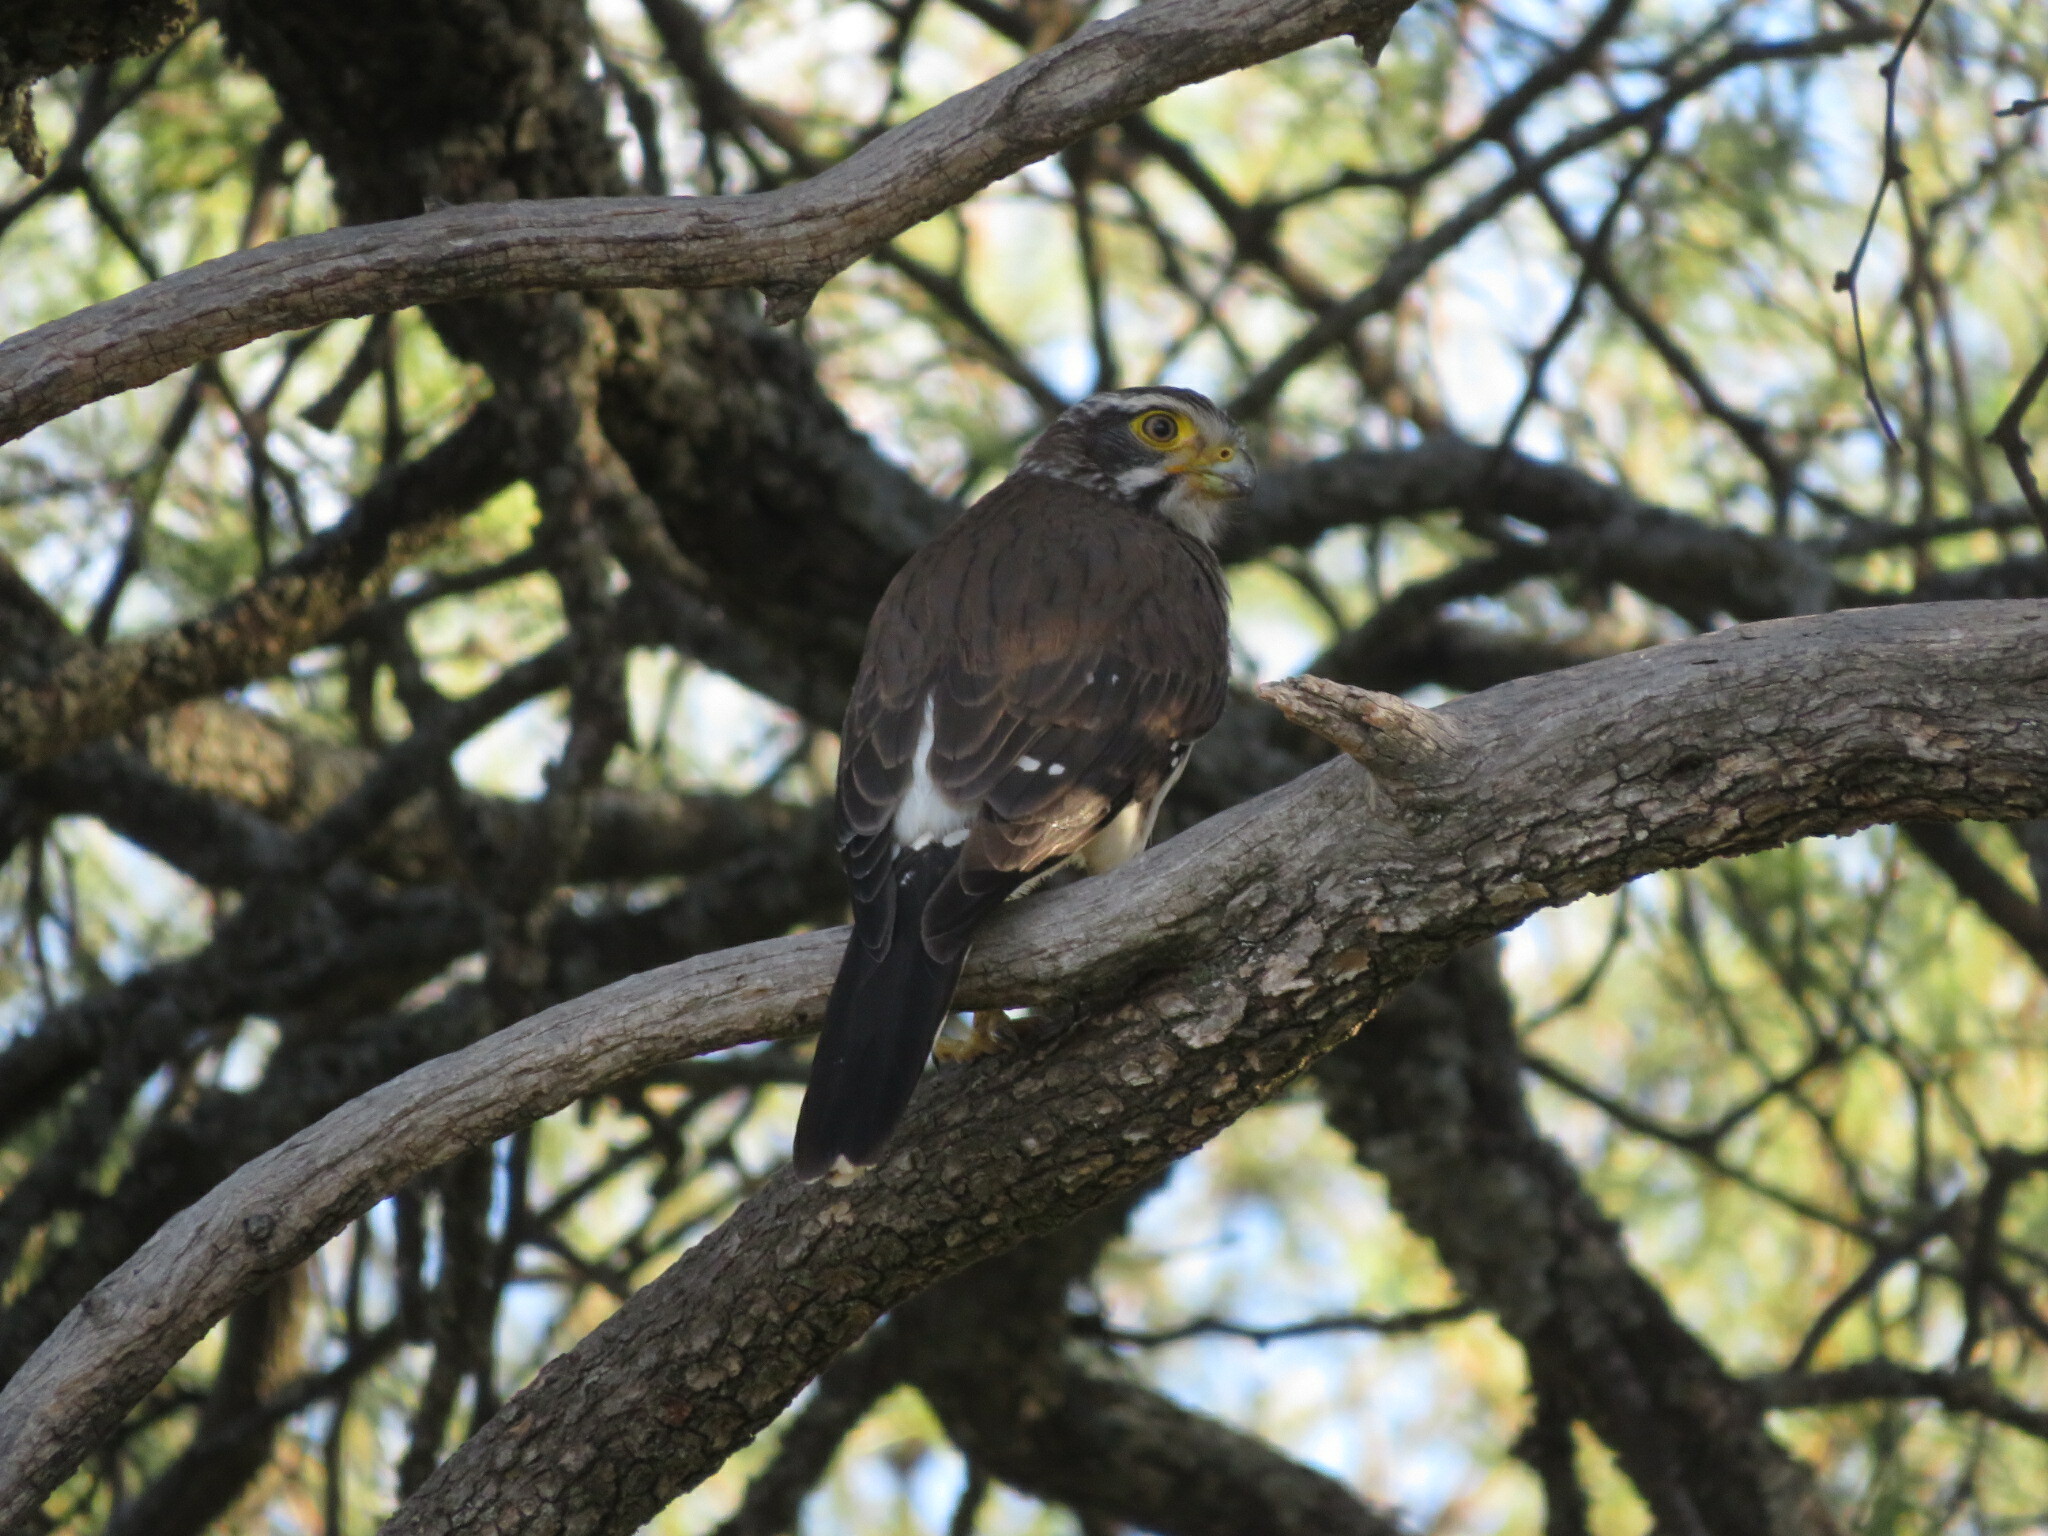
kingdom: Animalia
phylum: Chordata
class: Aves
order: Falconiformes
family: Falconidae
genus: Spiziapteryx
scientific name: Spiziapteryx circumcincta
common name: Spot-winged falconet
